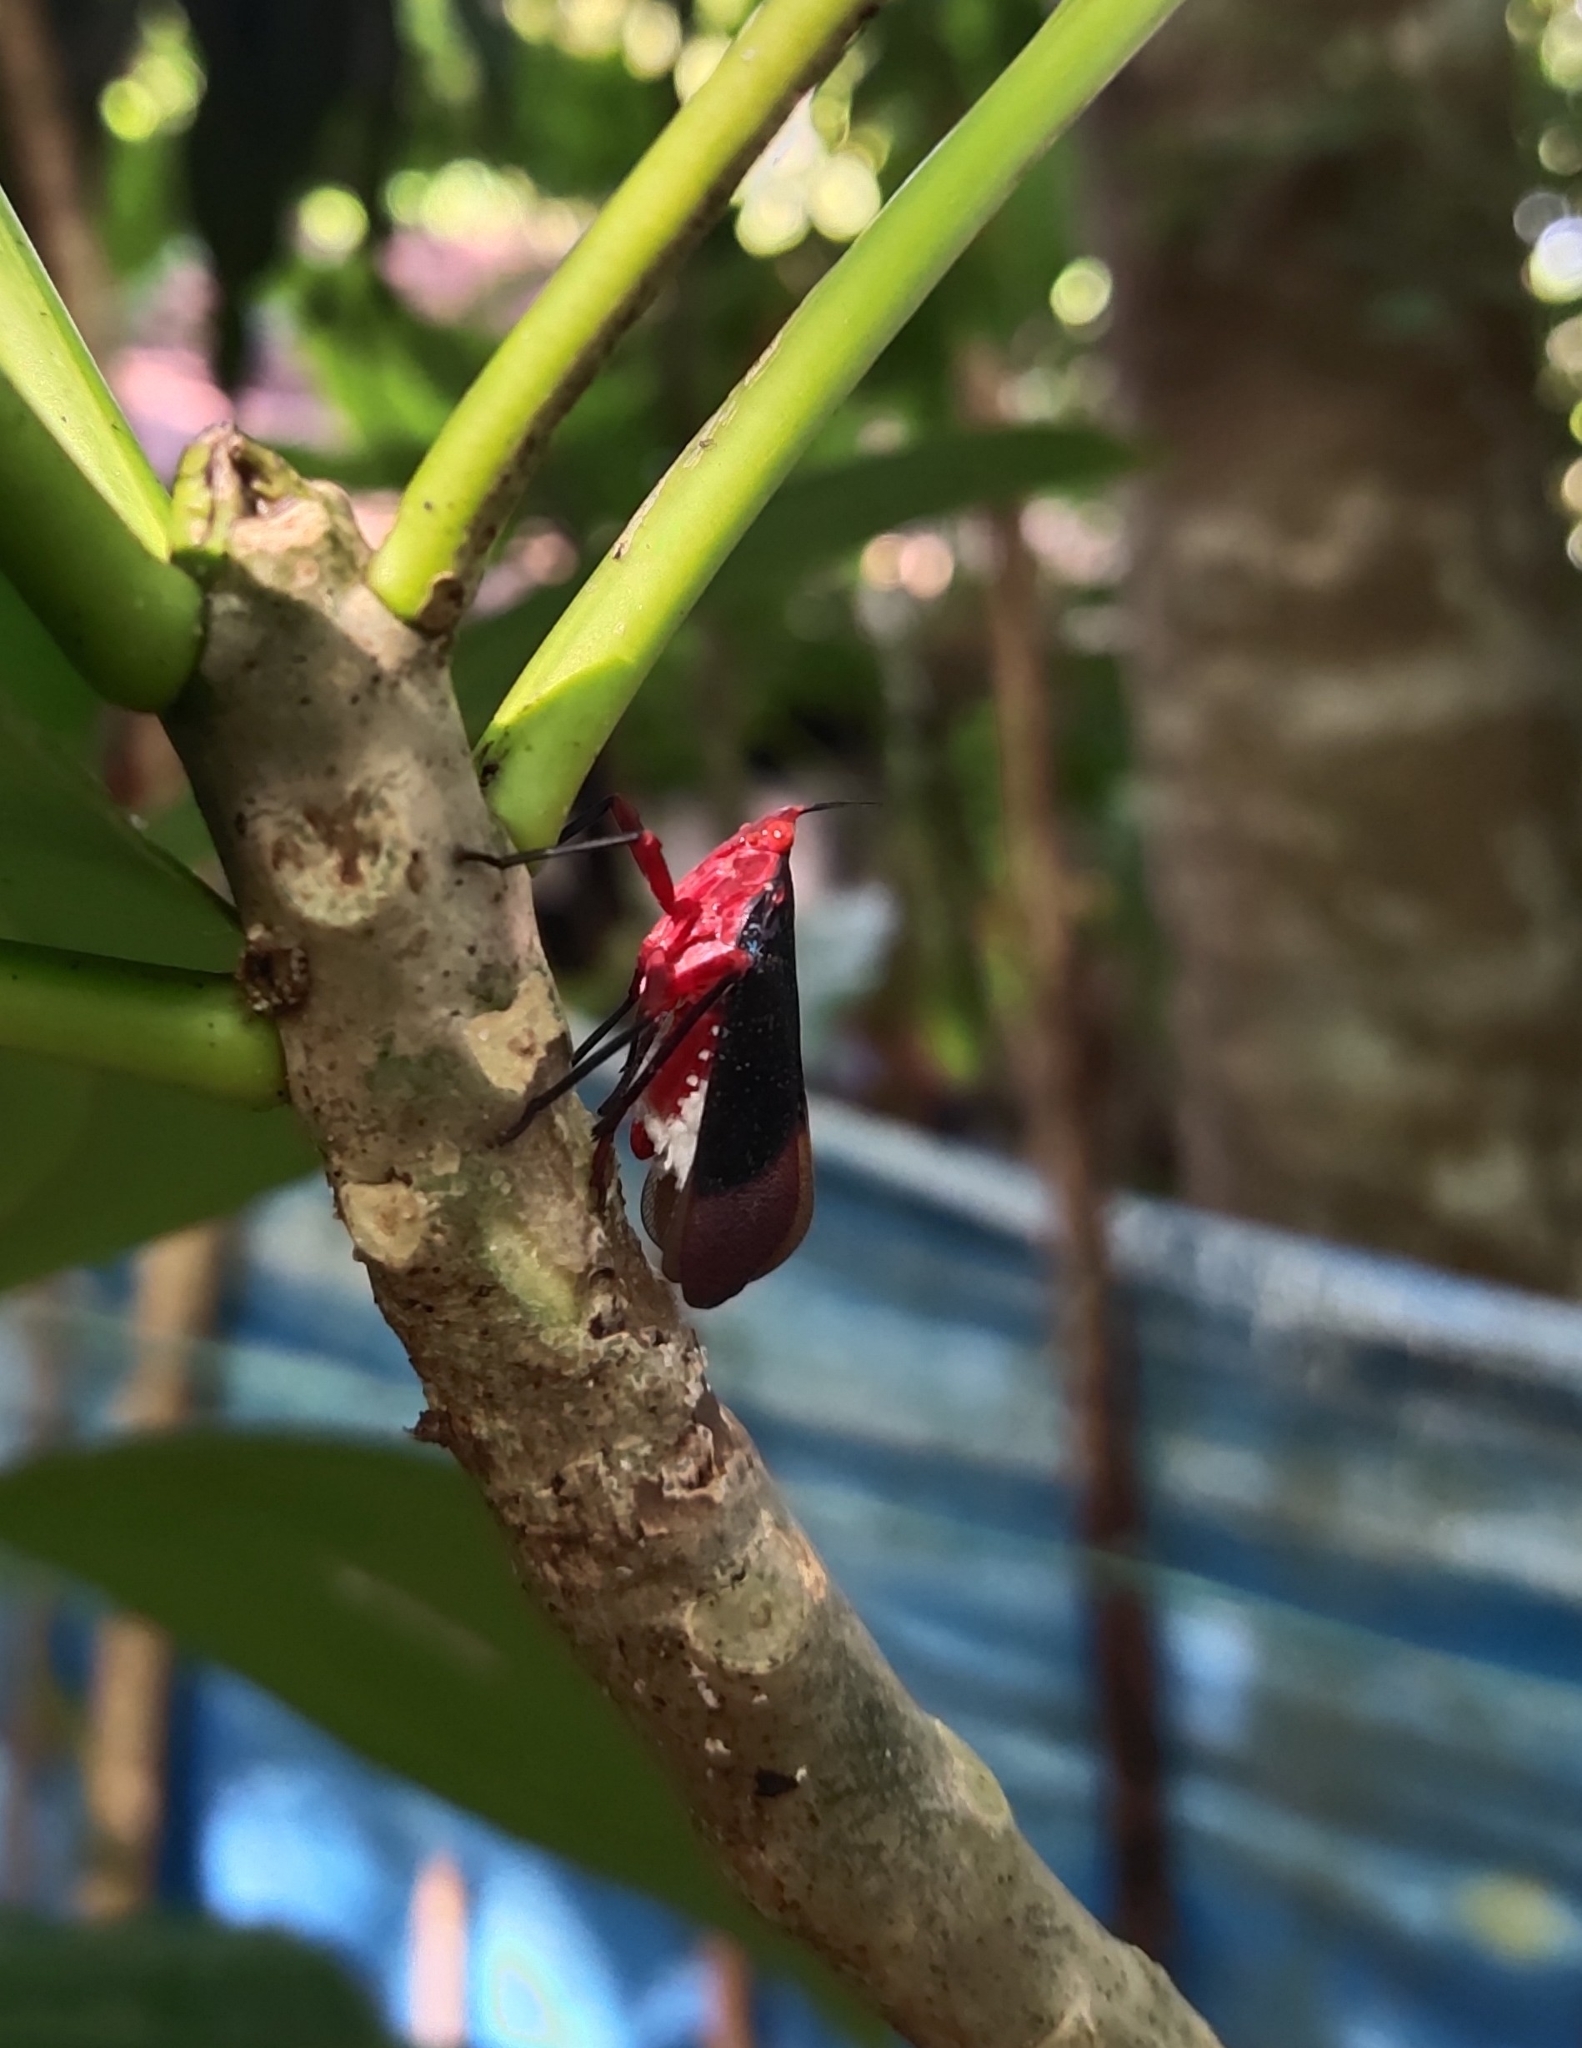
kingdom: Animalia
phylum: Arthropoda
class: Insecta
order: Hemiptera
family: Fulgoridae
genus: Kalidasa
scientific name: Kalidasa lanata
